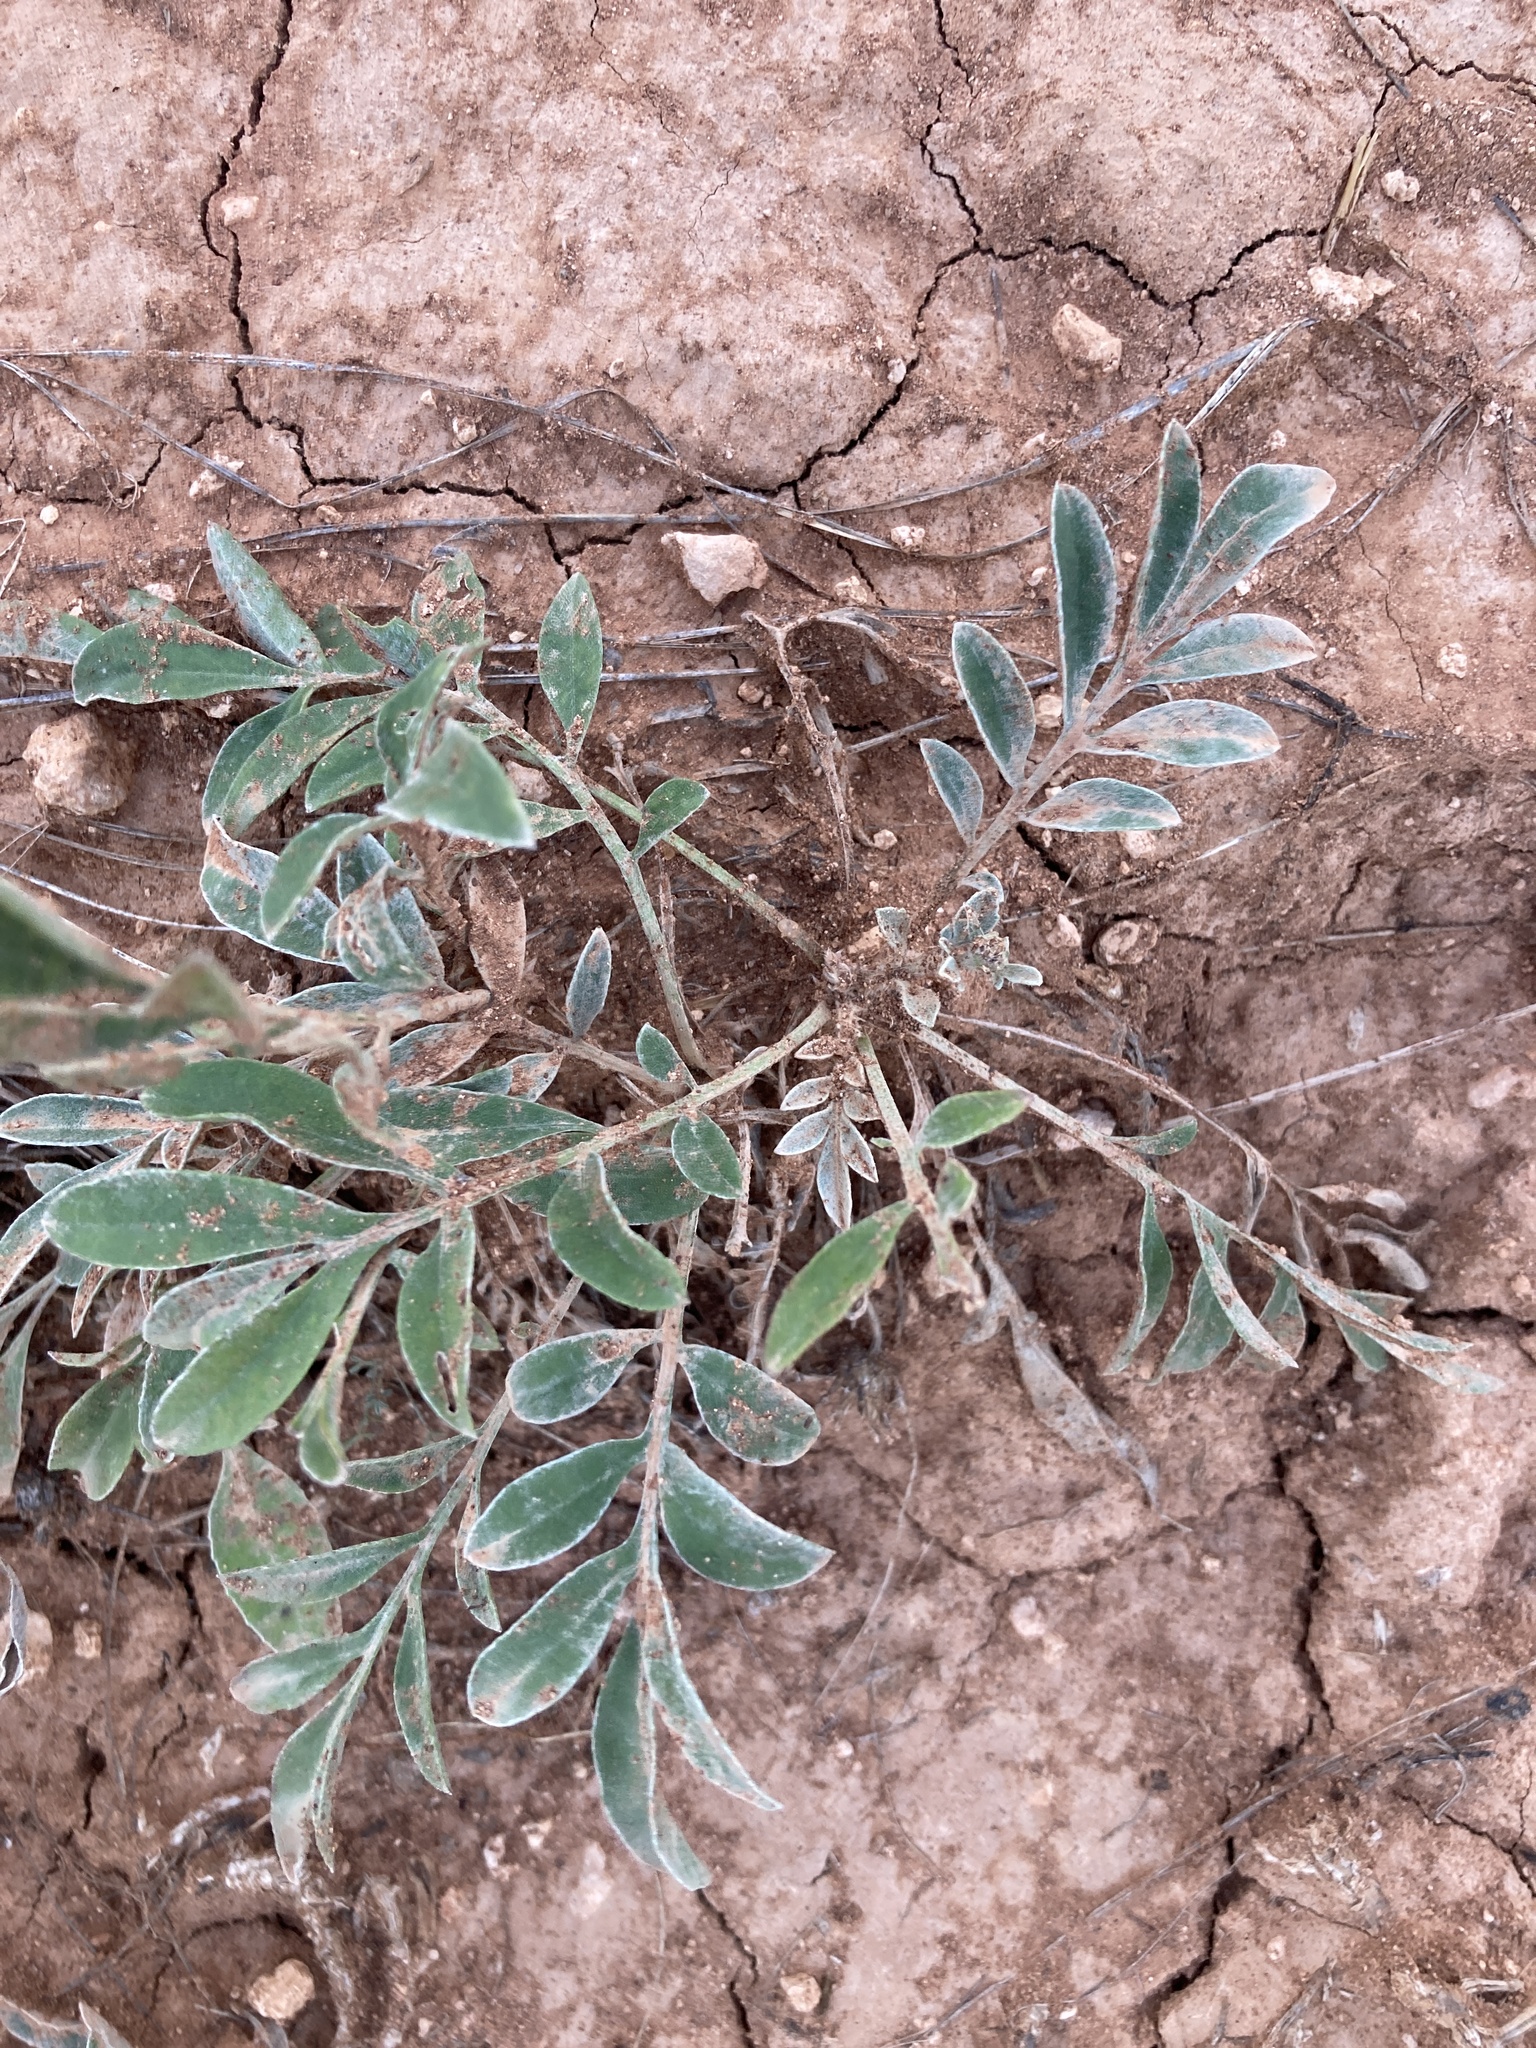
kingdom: Plantae
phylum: Tracheophyta
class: Magnoliopsida
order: Asterales
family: Asteraceae
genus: Psephellus
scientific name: Psephellus marschallianus
